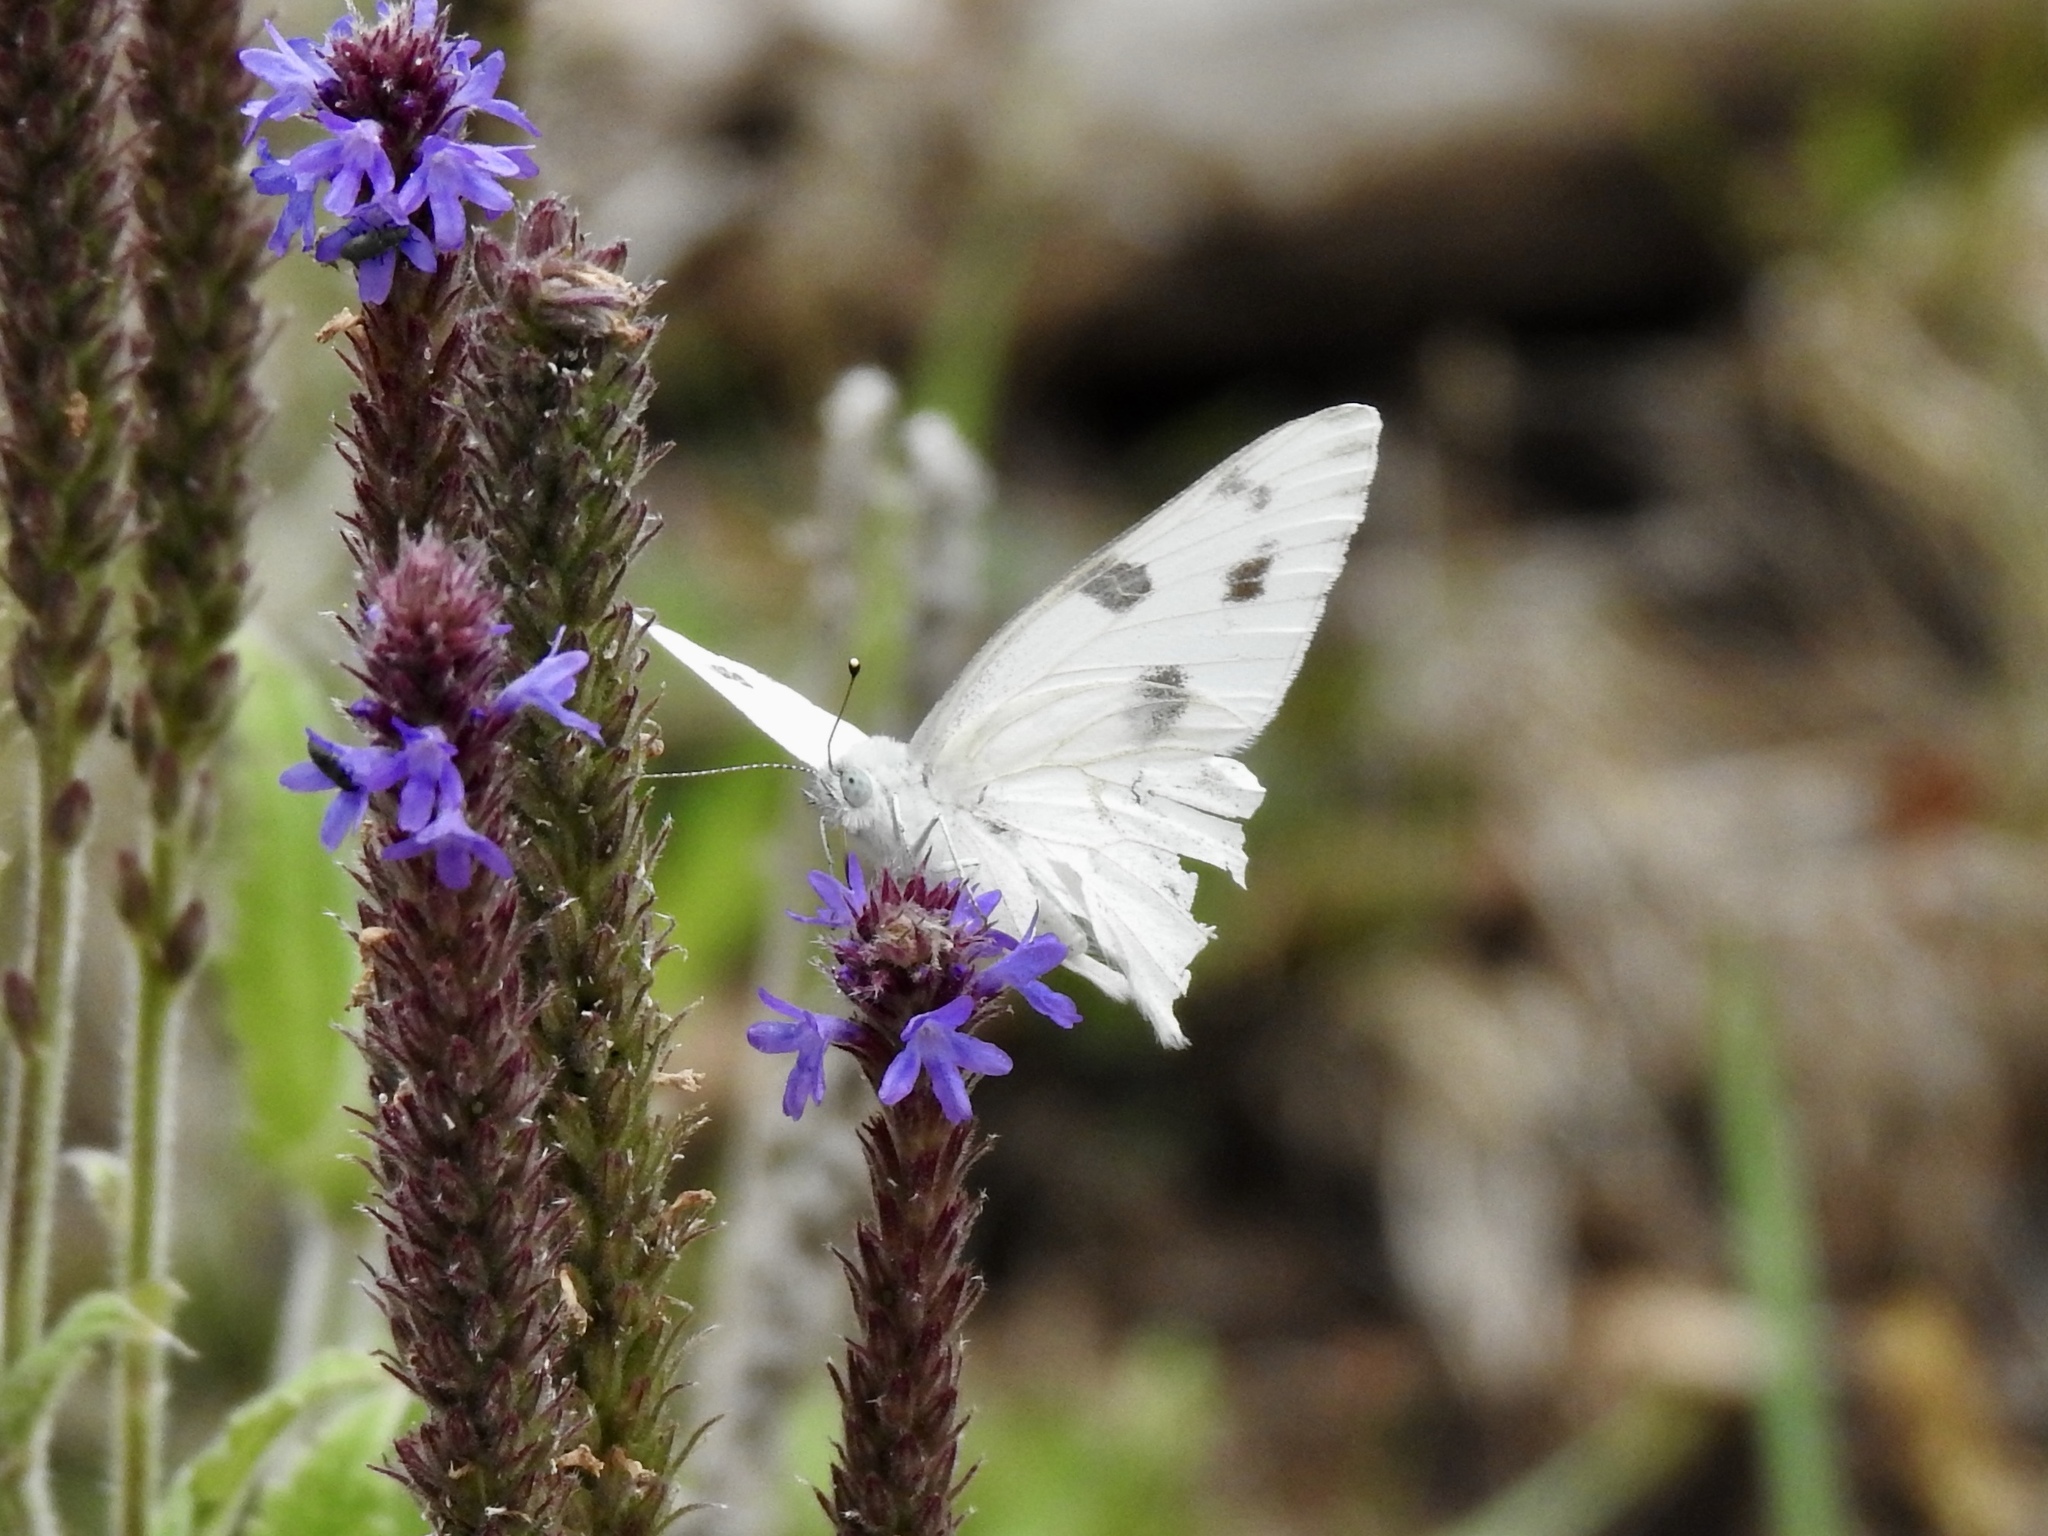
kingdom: Animalia
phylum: Arthropoda
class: Insecta
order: Lepidoptera
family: Pieridae
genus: Pontia
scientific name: Pontia protodice
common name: Checkered white
